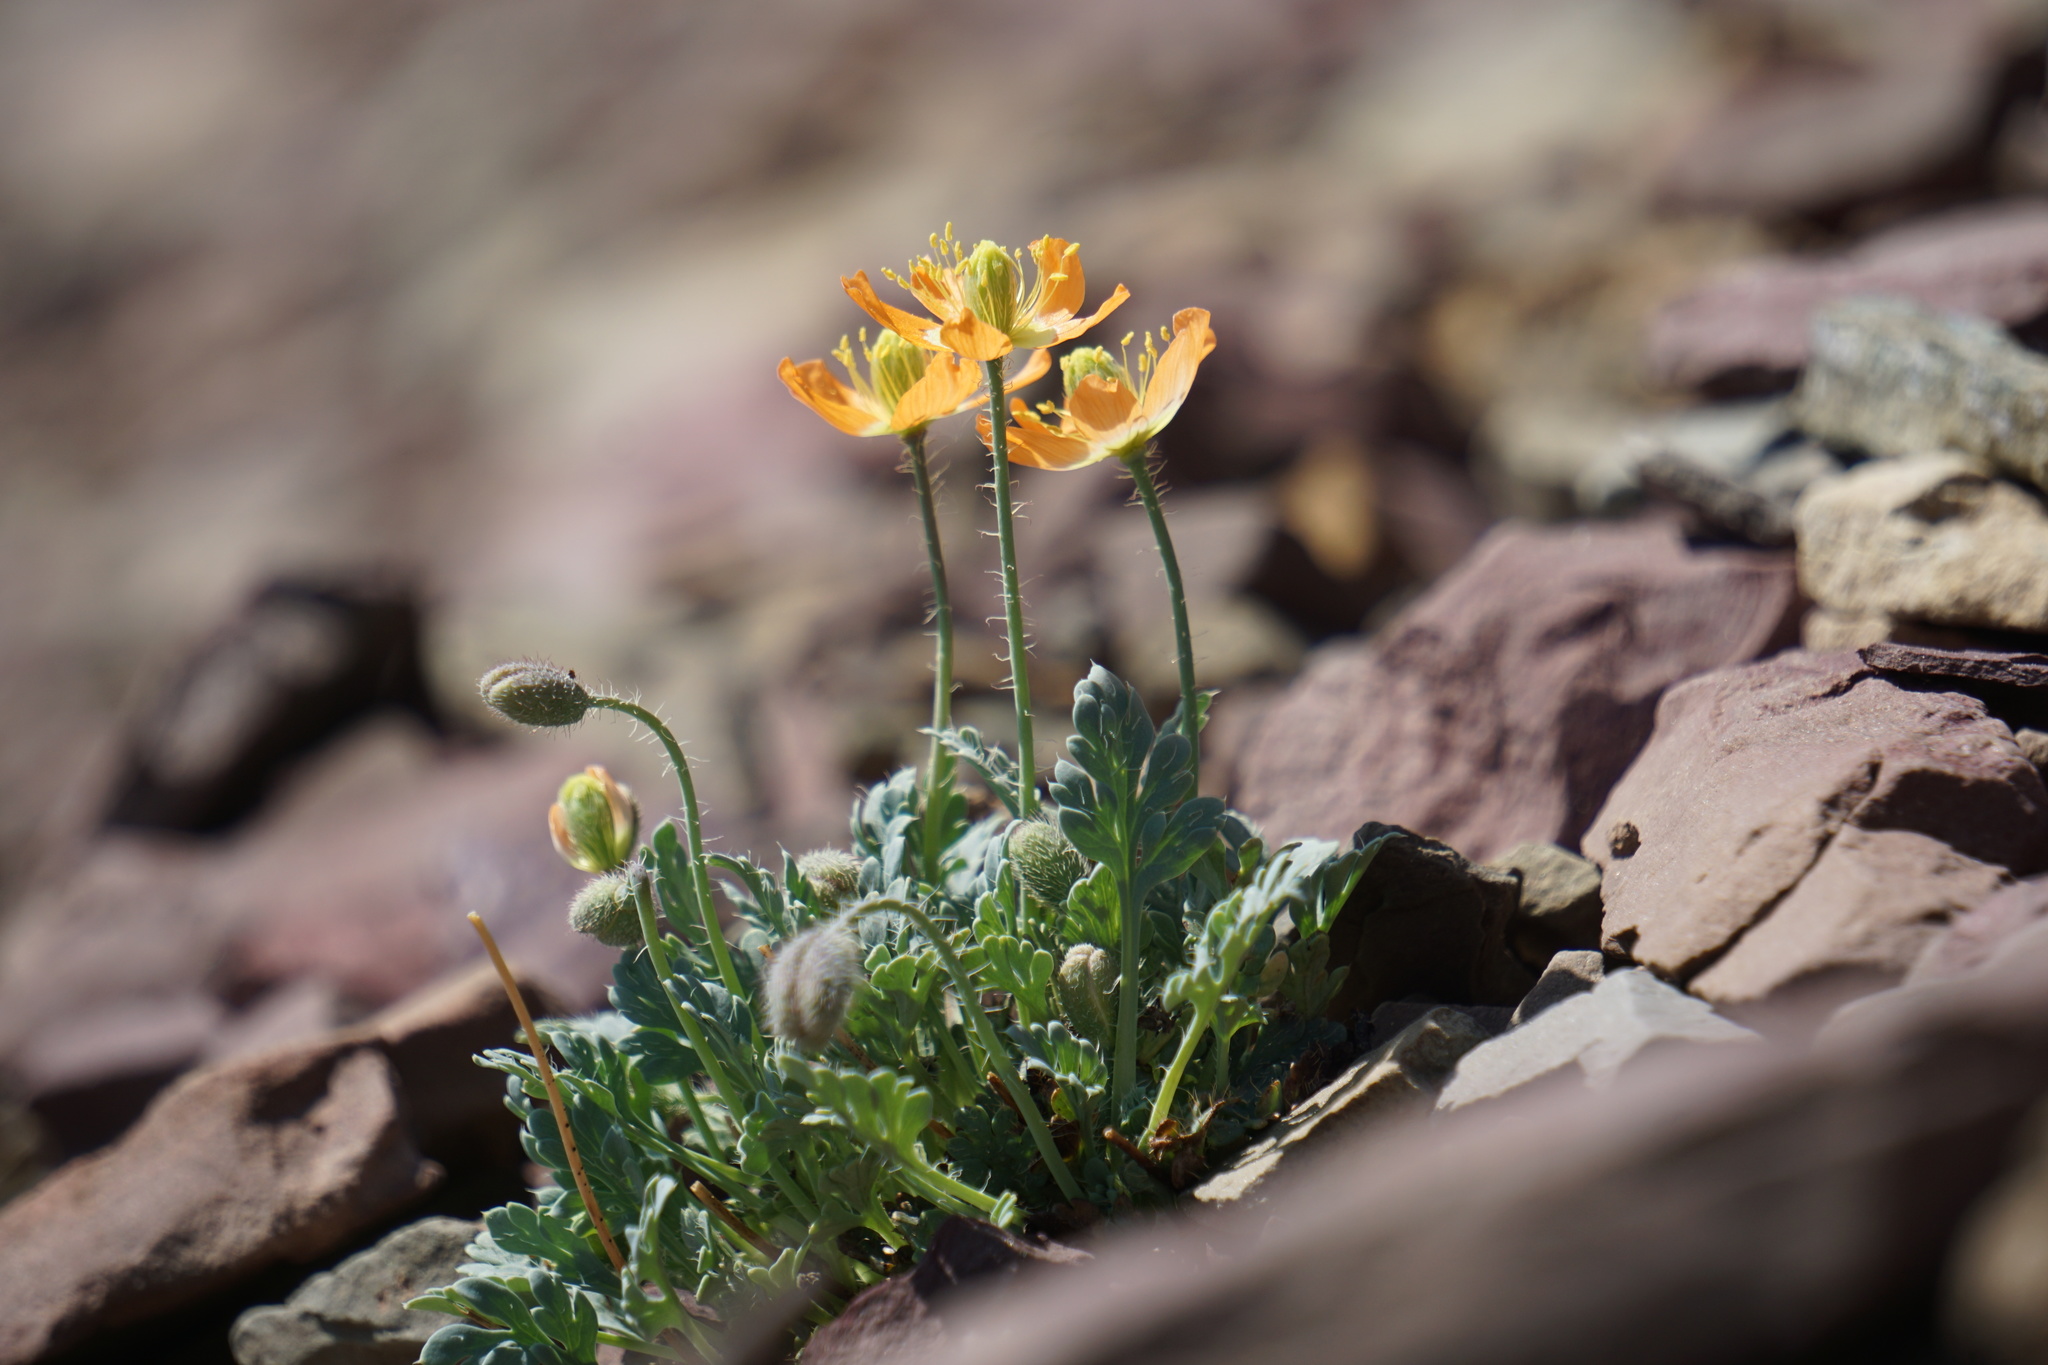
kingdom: Plantae
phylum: Tracheophyta
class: Magnoliopsida
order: Ranunculales
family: Papaveraceae
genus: Papaver
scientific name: Papaver pygmaeum
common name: Alpine glacier poppy
